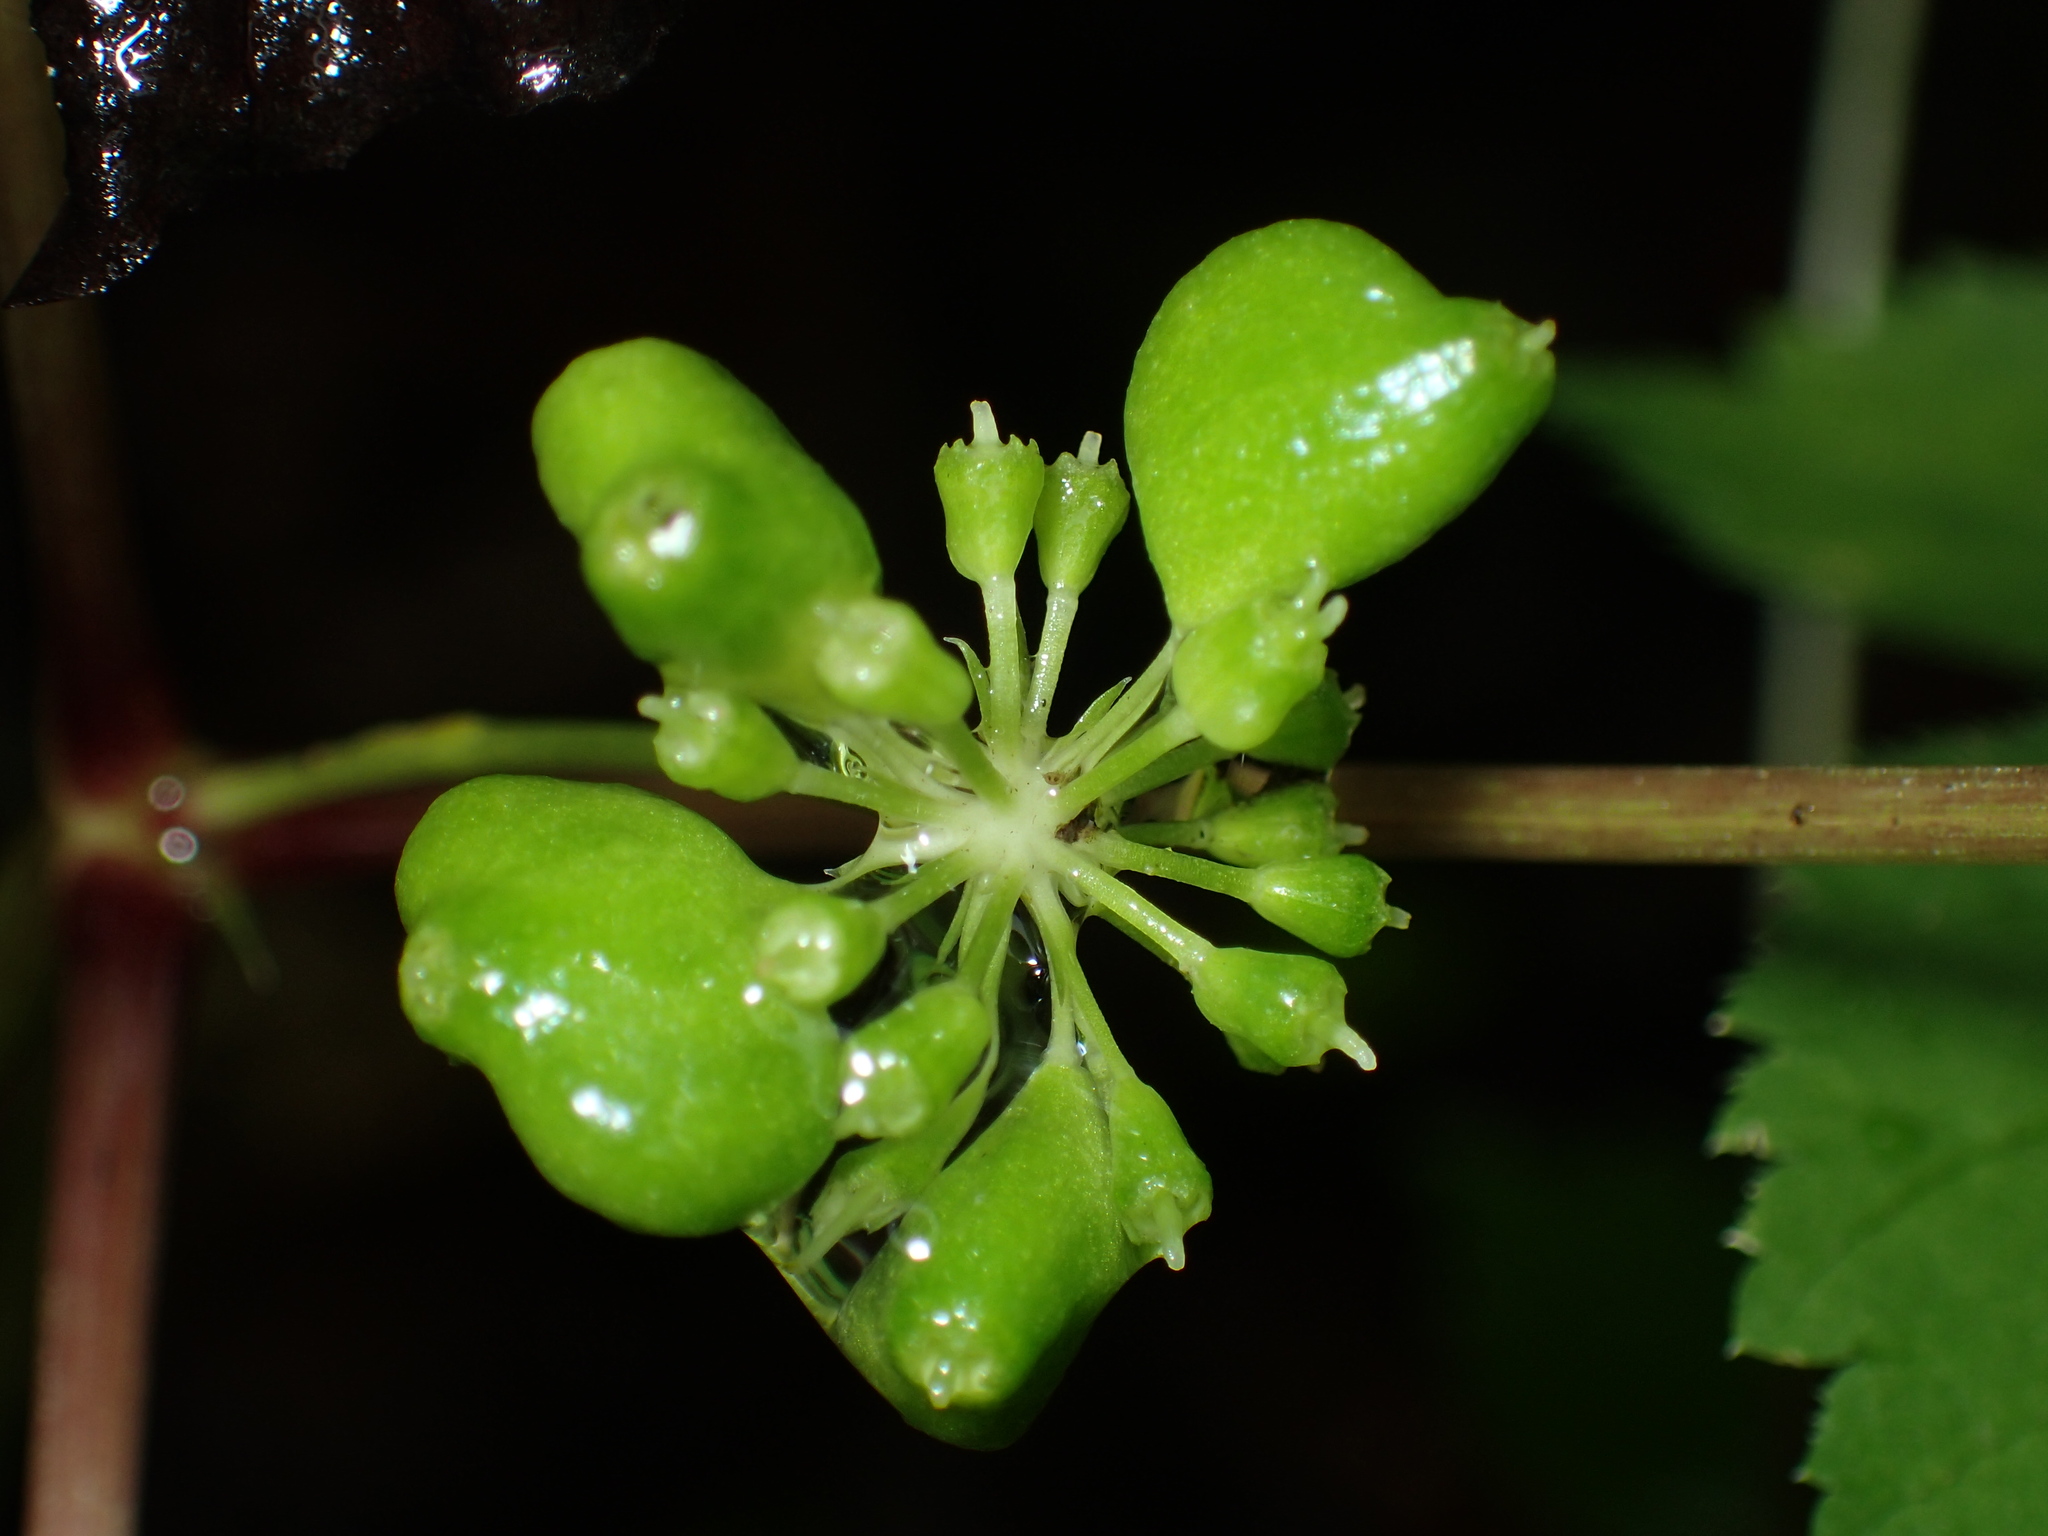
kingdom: Plantae
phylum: Tracheophyta
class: Magnoliopsida
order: Apiales
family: Araliaceae
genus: Panax
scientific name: Panax quinquefolius
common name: American ginseng
